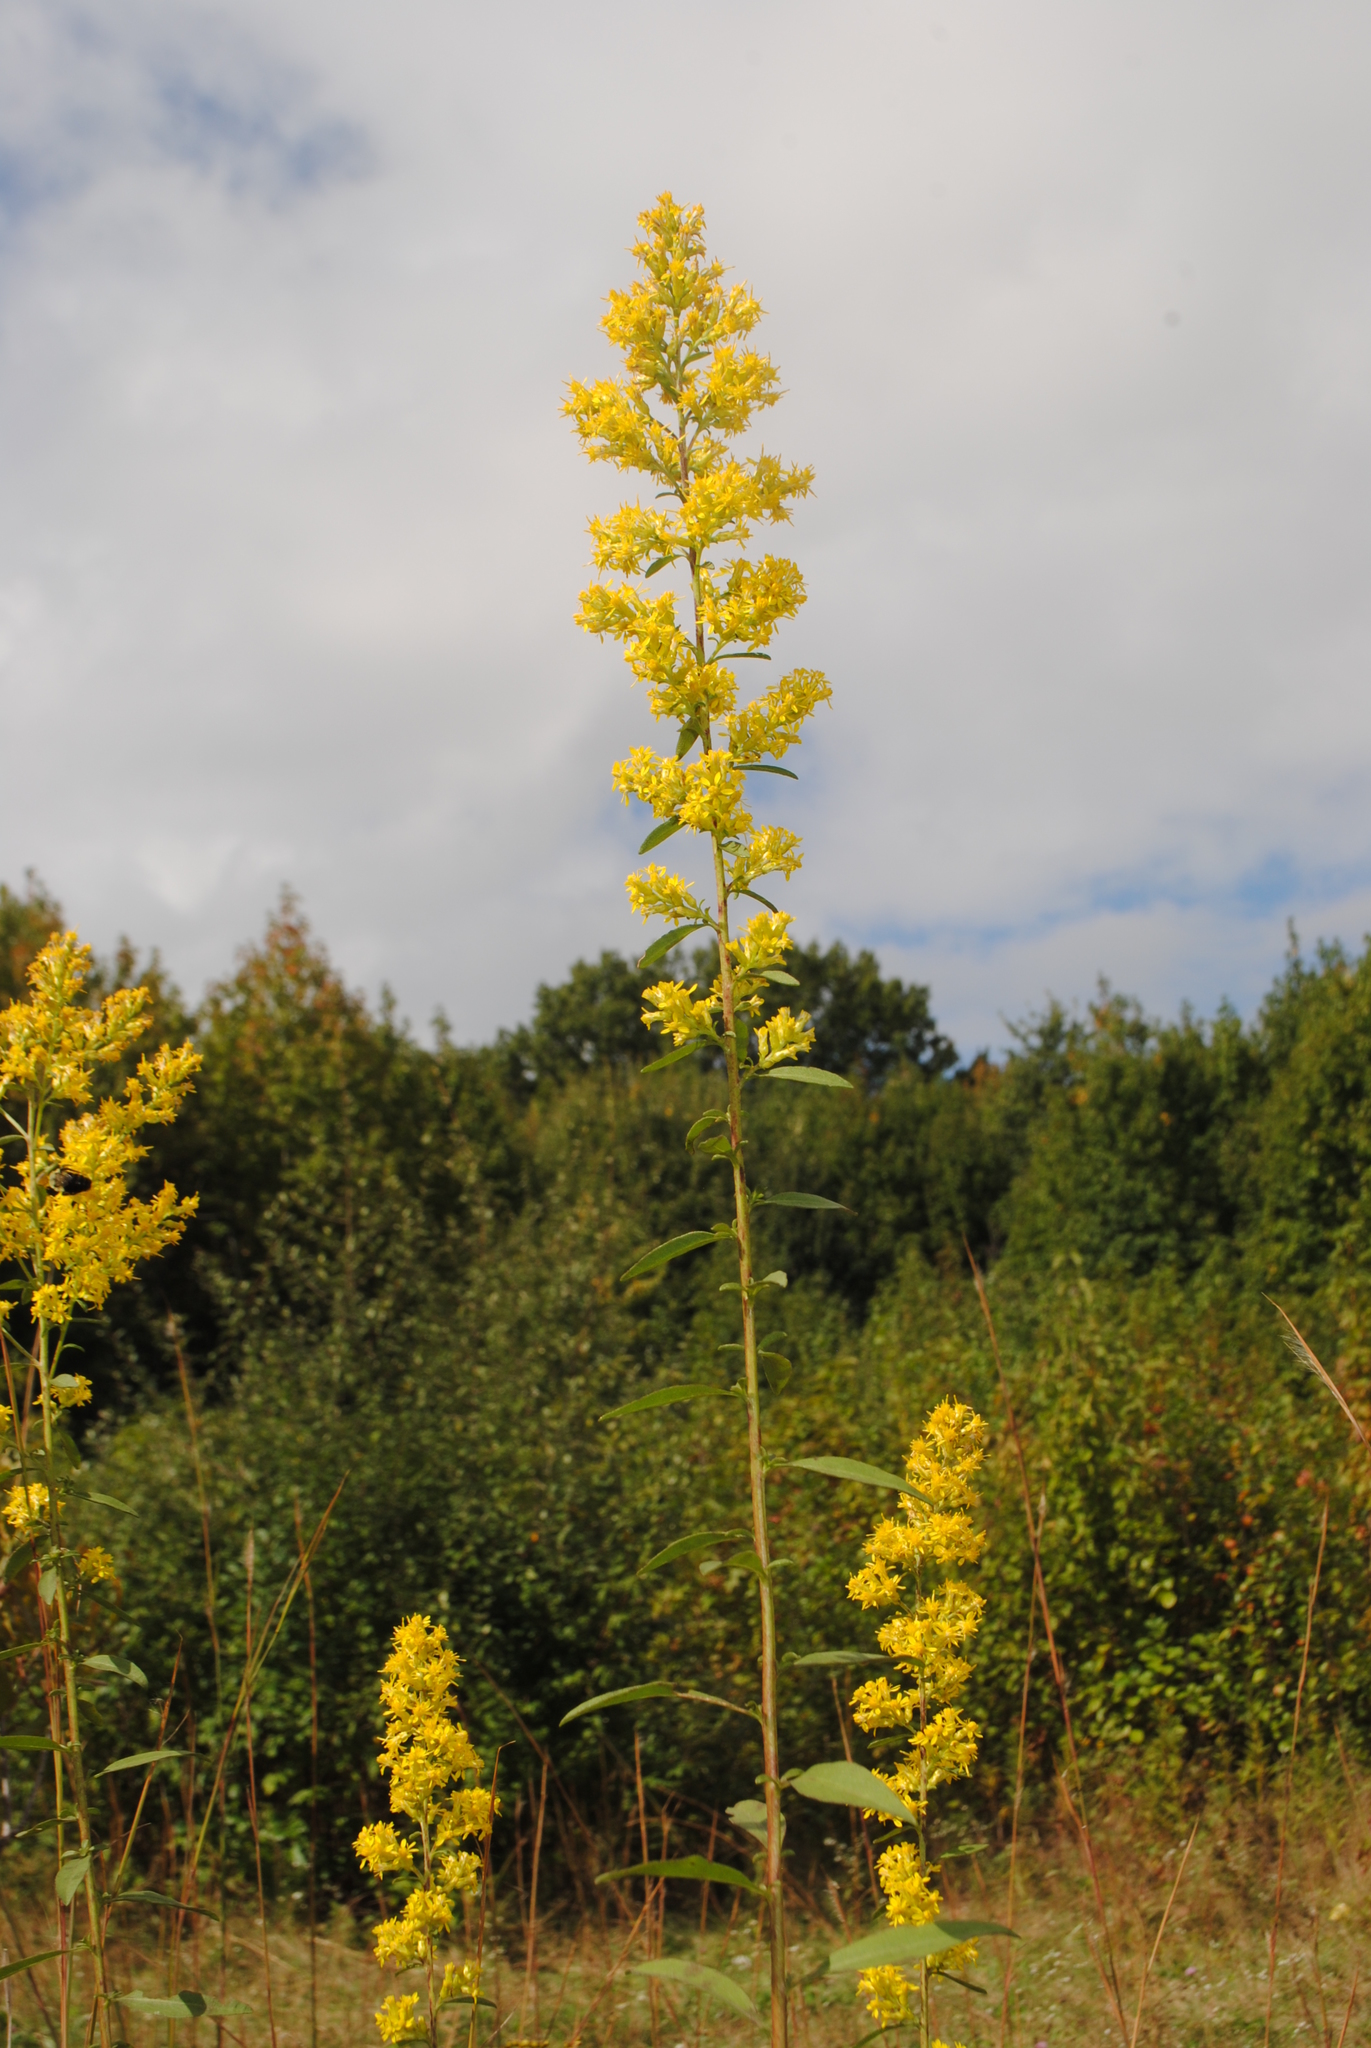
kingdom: Plantae
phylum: Tracheophyta
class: Magnoliopsida
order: Asterales
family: Asteraceae
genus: Solidago
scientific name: Solidago speciosa
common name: Showy goldenrod
